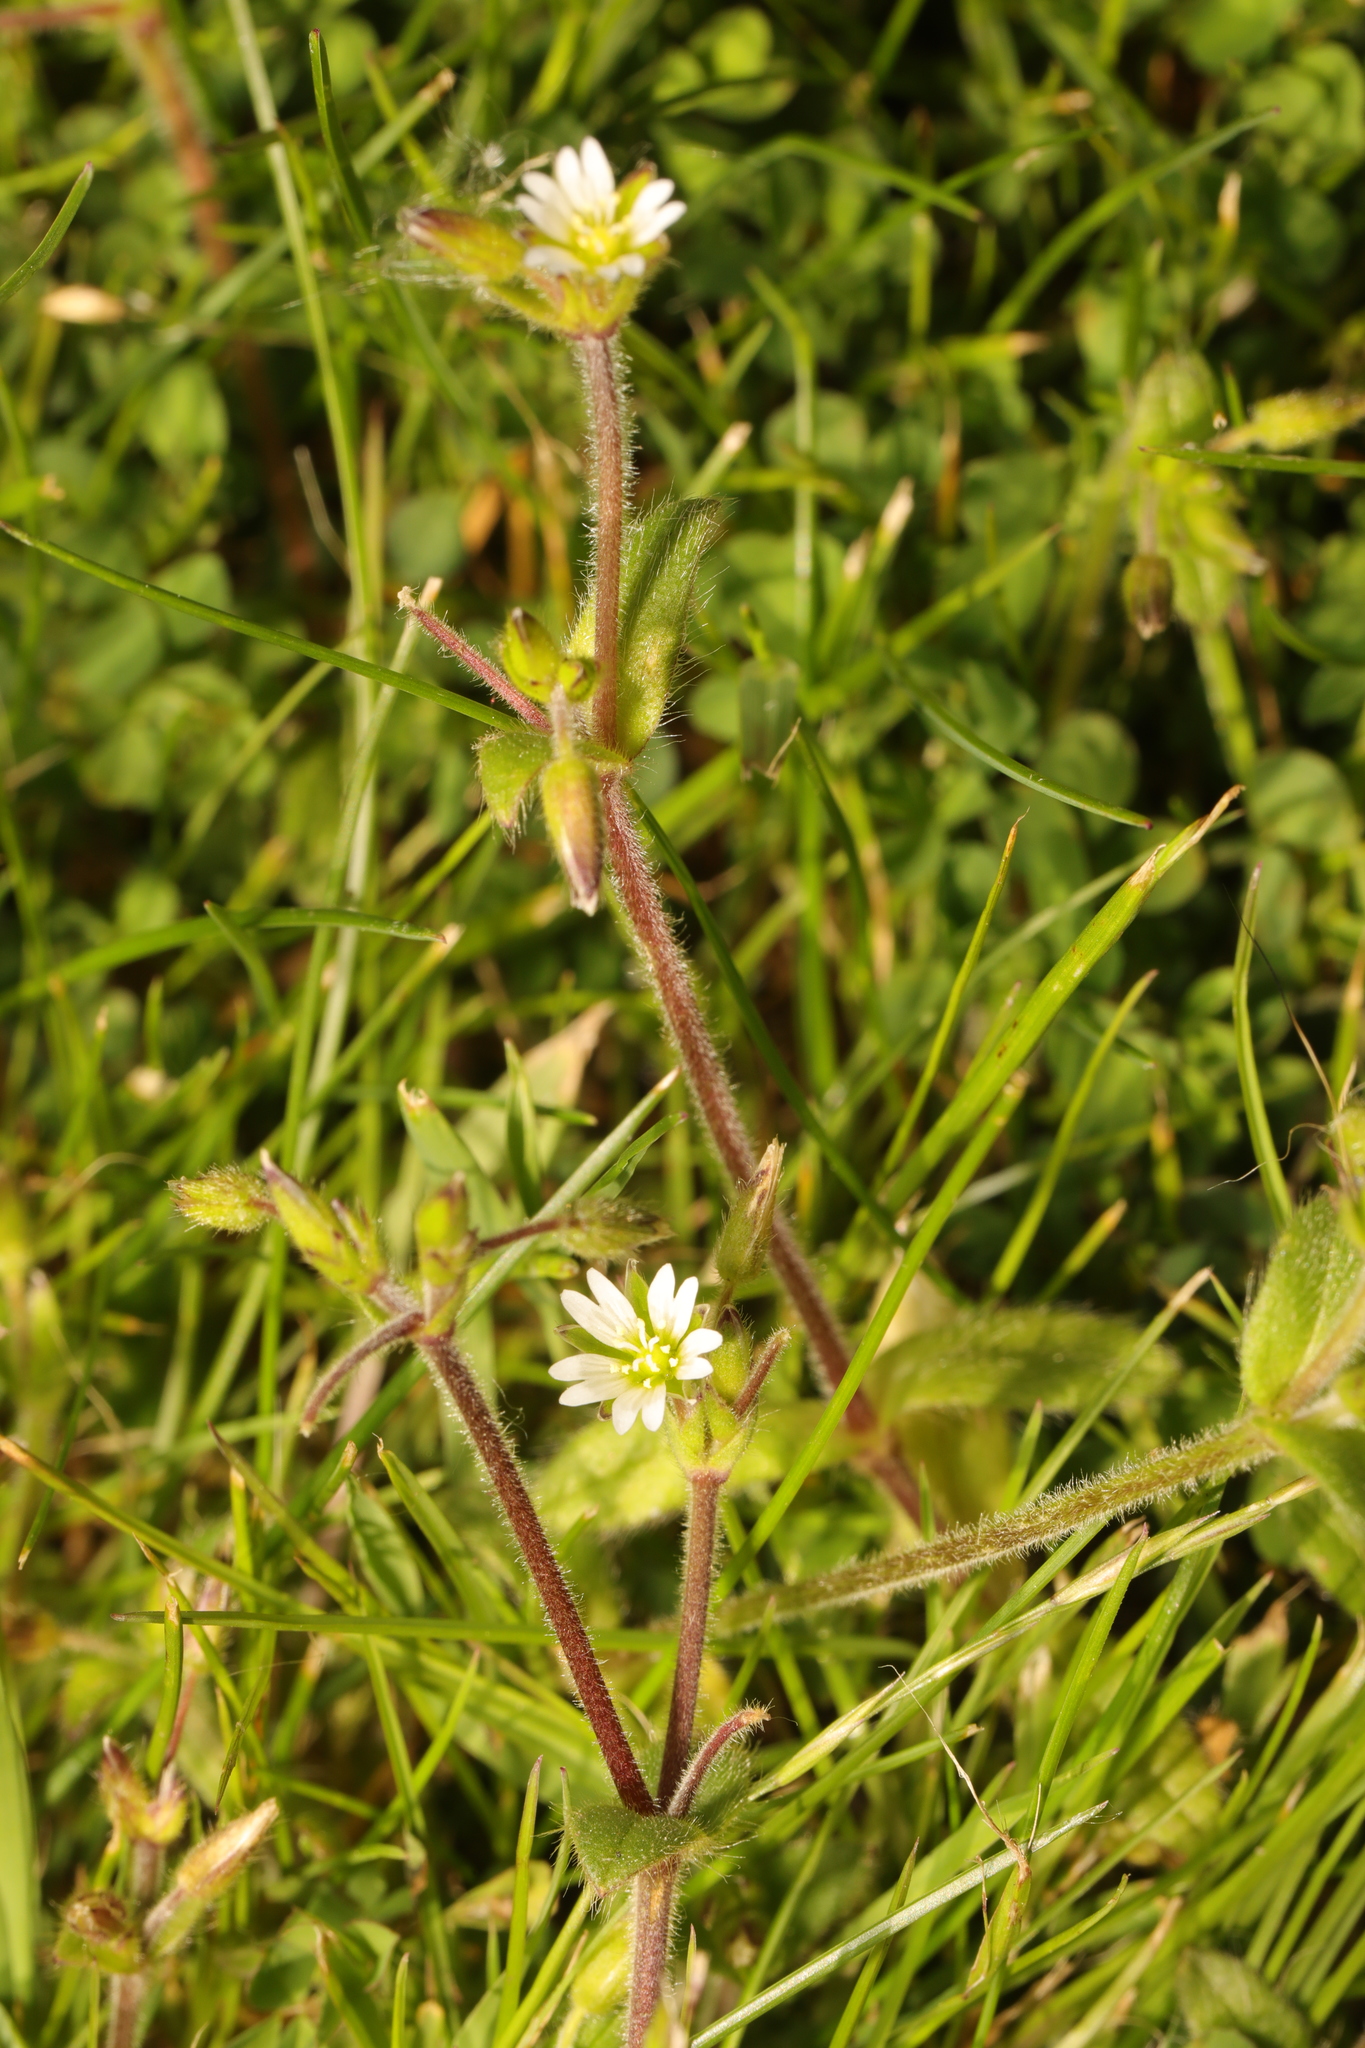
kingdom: Plantae
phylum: Tracheophyta
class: Magnoliopsida
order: Caryophyllales
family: Caryophyllaceae
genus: Cerastium
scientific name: Cerastium fontanum
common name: Common mouse-ear
